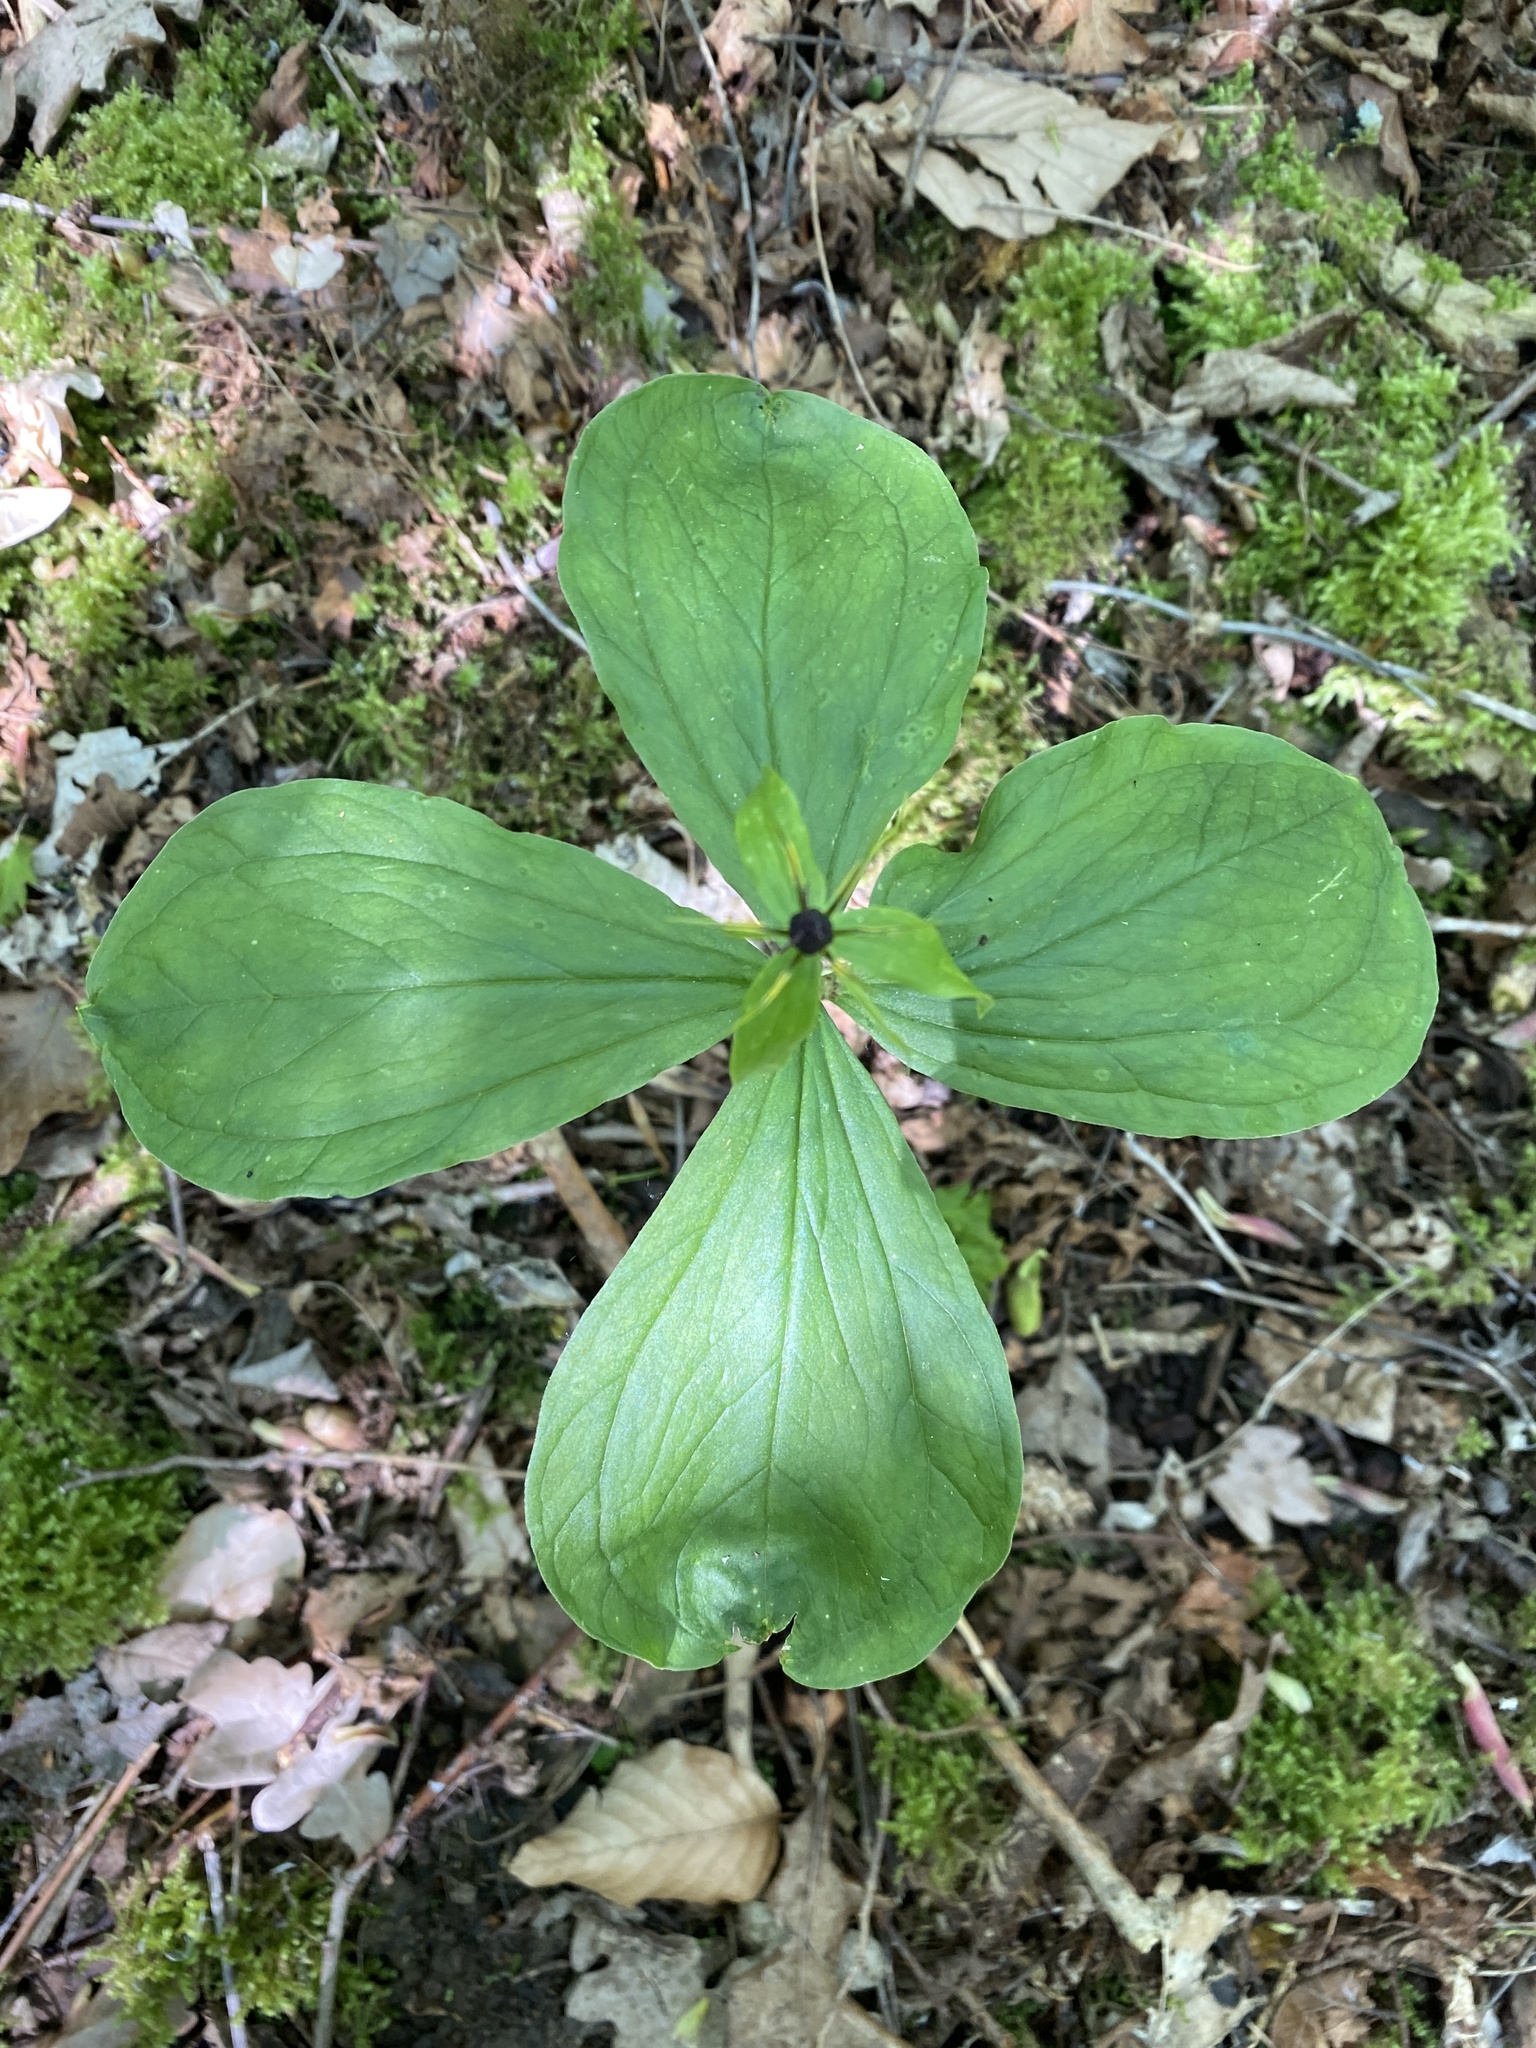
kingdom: Plantae
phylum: Tracheophyta
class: Liliopsida
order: Liliales
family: Melanthiaceae
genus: Paris
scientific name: Paris quadrifolia
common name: Herb-paris
